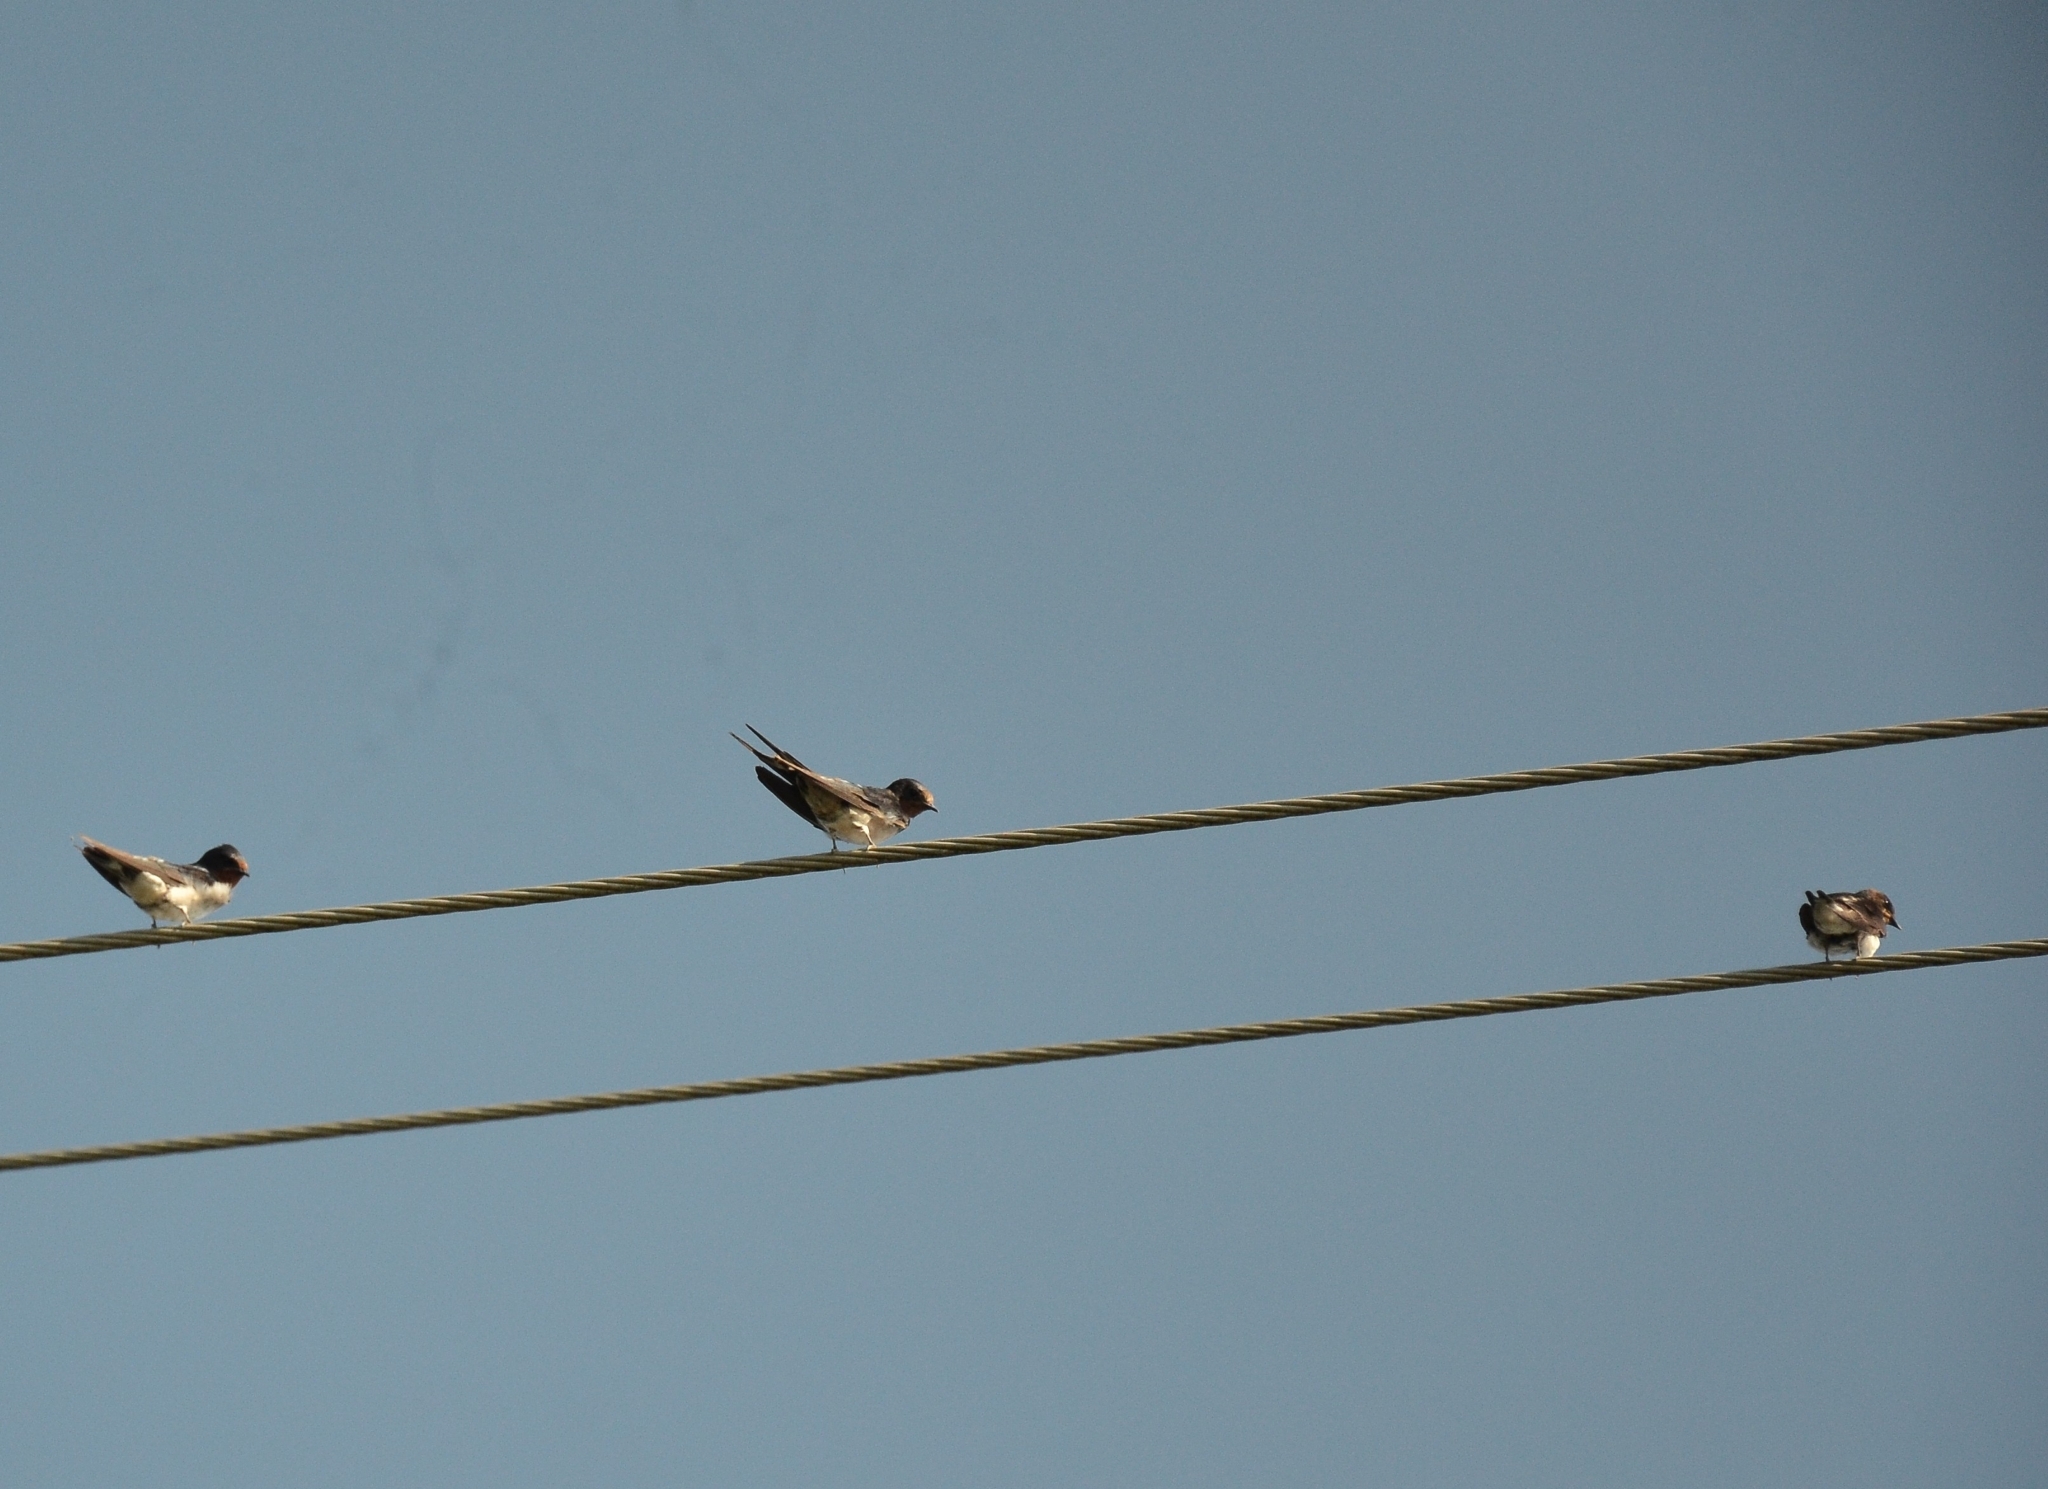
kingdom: Animalia
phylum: Chordata
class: Aves
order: Passeriformes
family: Hirundinidae
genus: Hirundo
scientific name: Hirundo rustica
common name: Barn swallow
